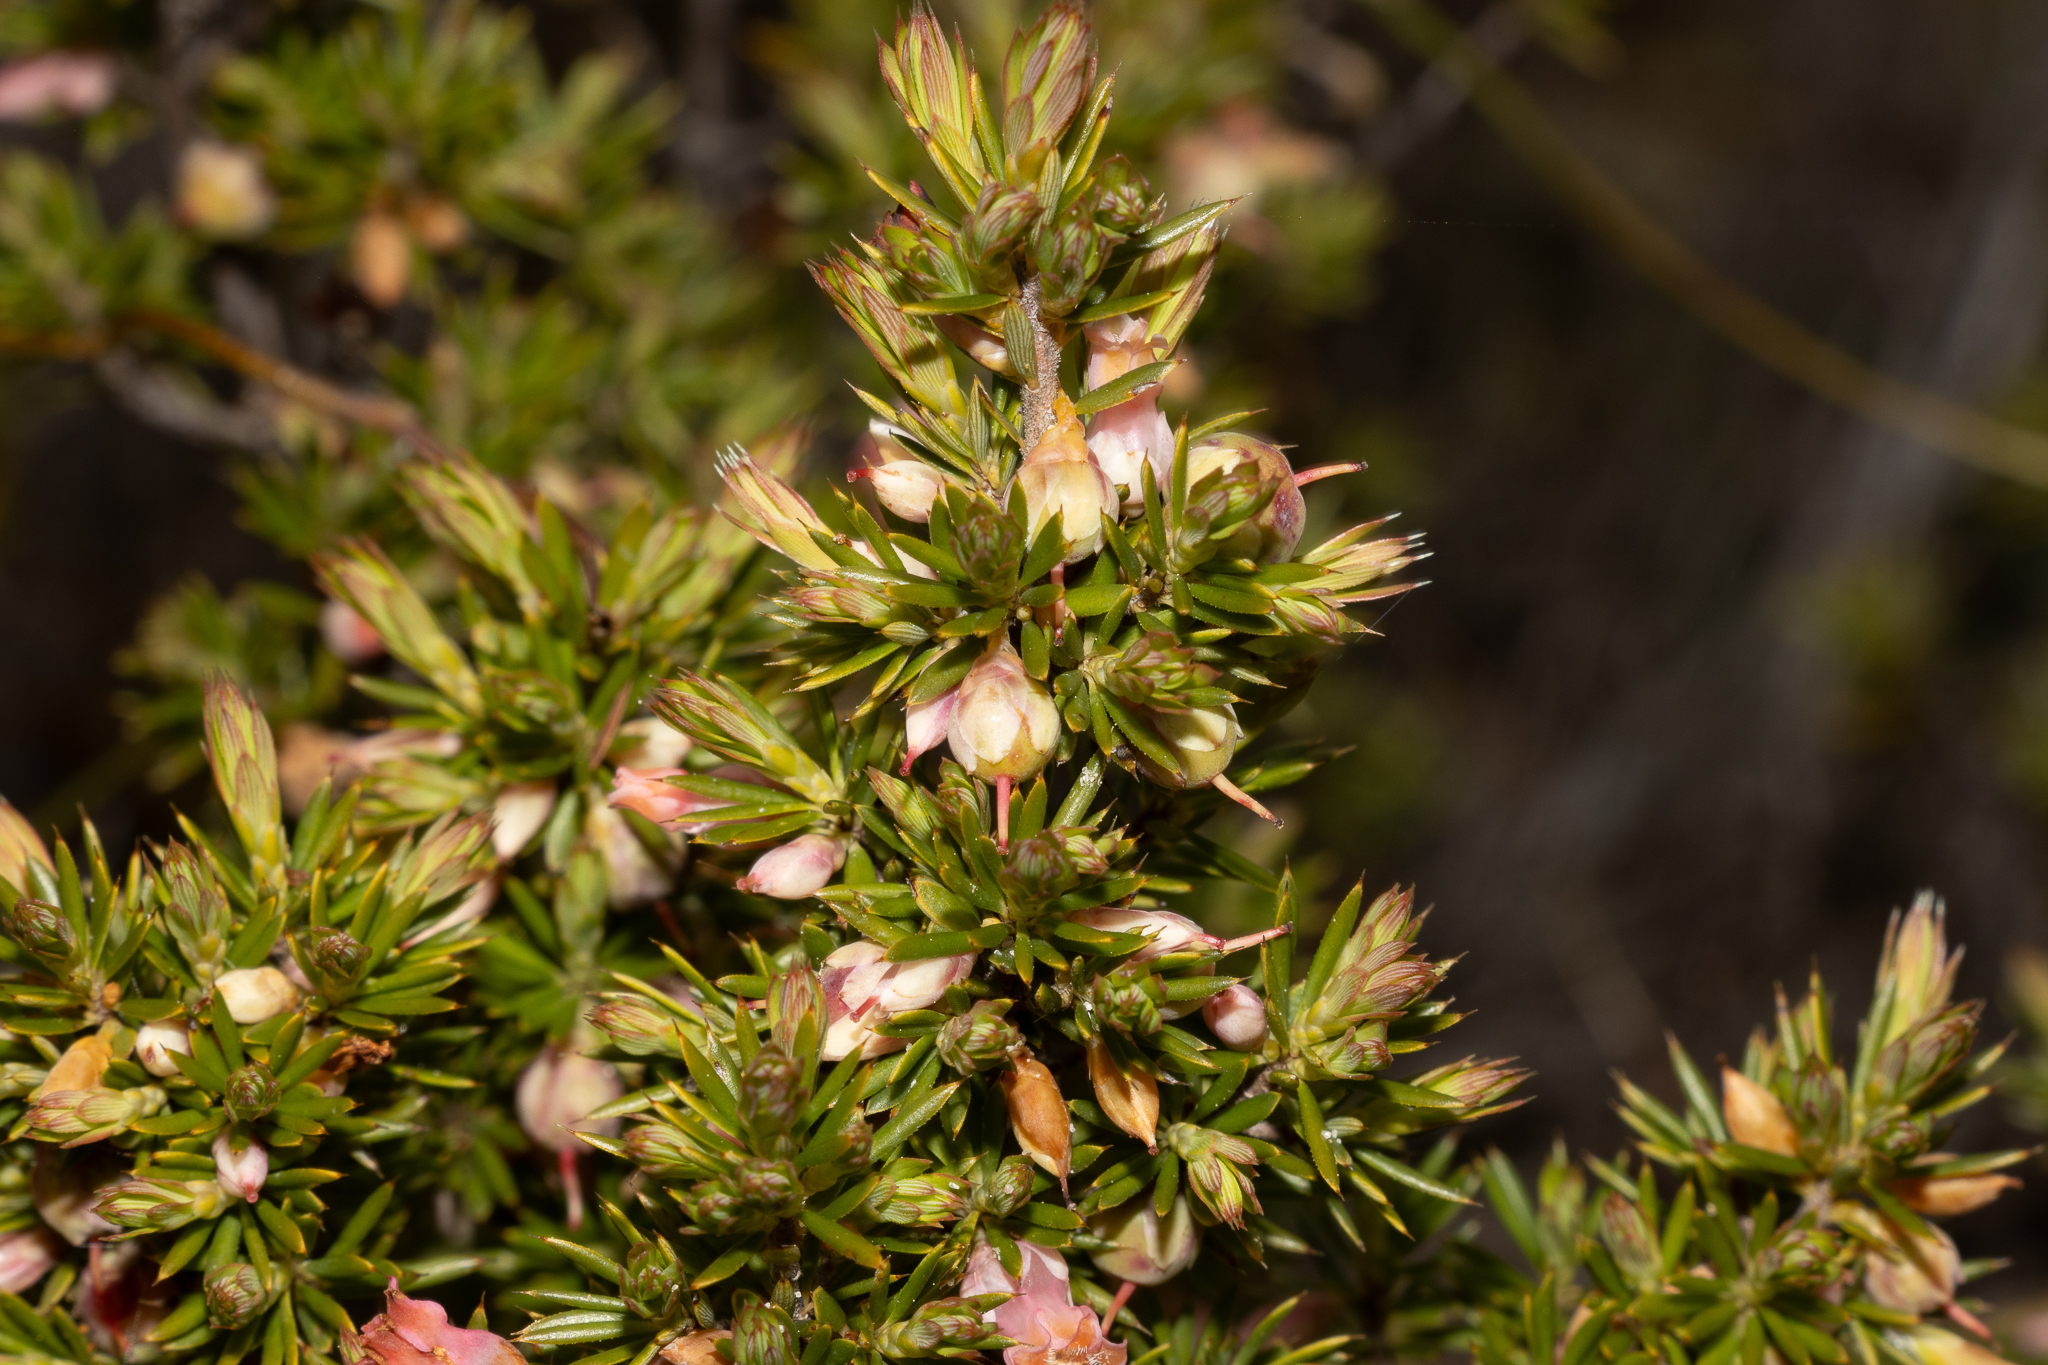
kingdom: Plantae
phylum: Tracheophyta
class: Magnoliopsida
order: Ericales
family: Ericaceae
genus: Brachyloma
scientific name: Brachyloma ericoides
